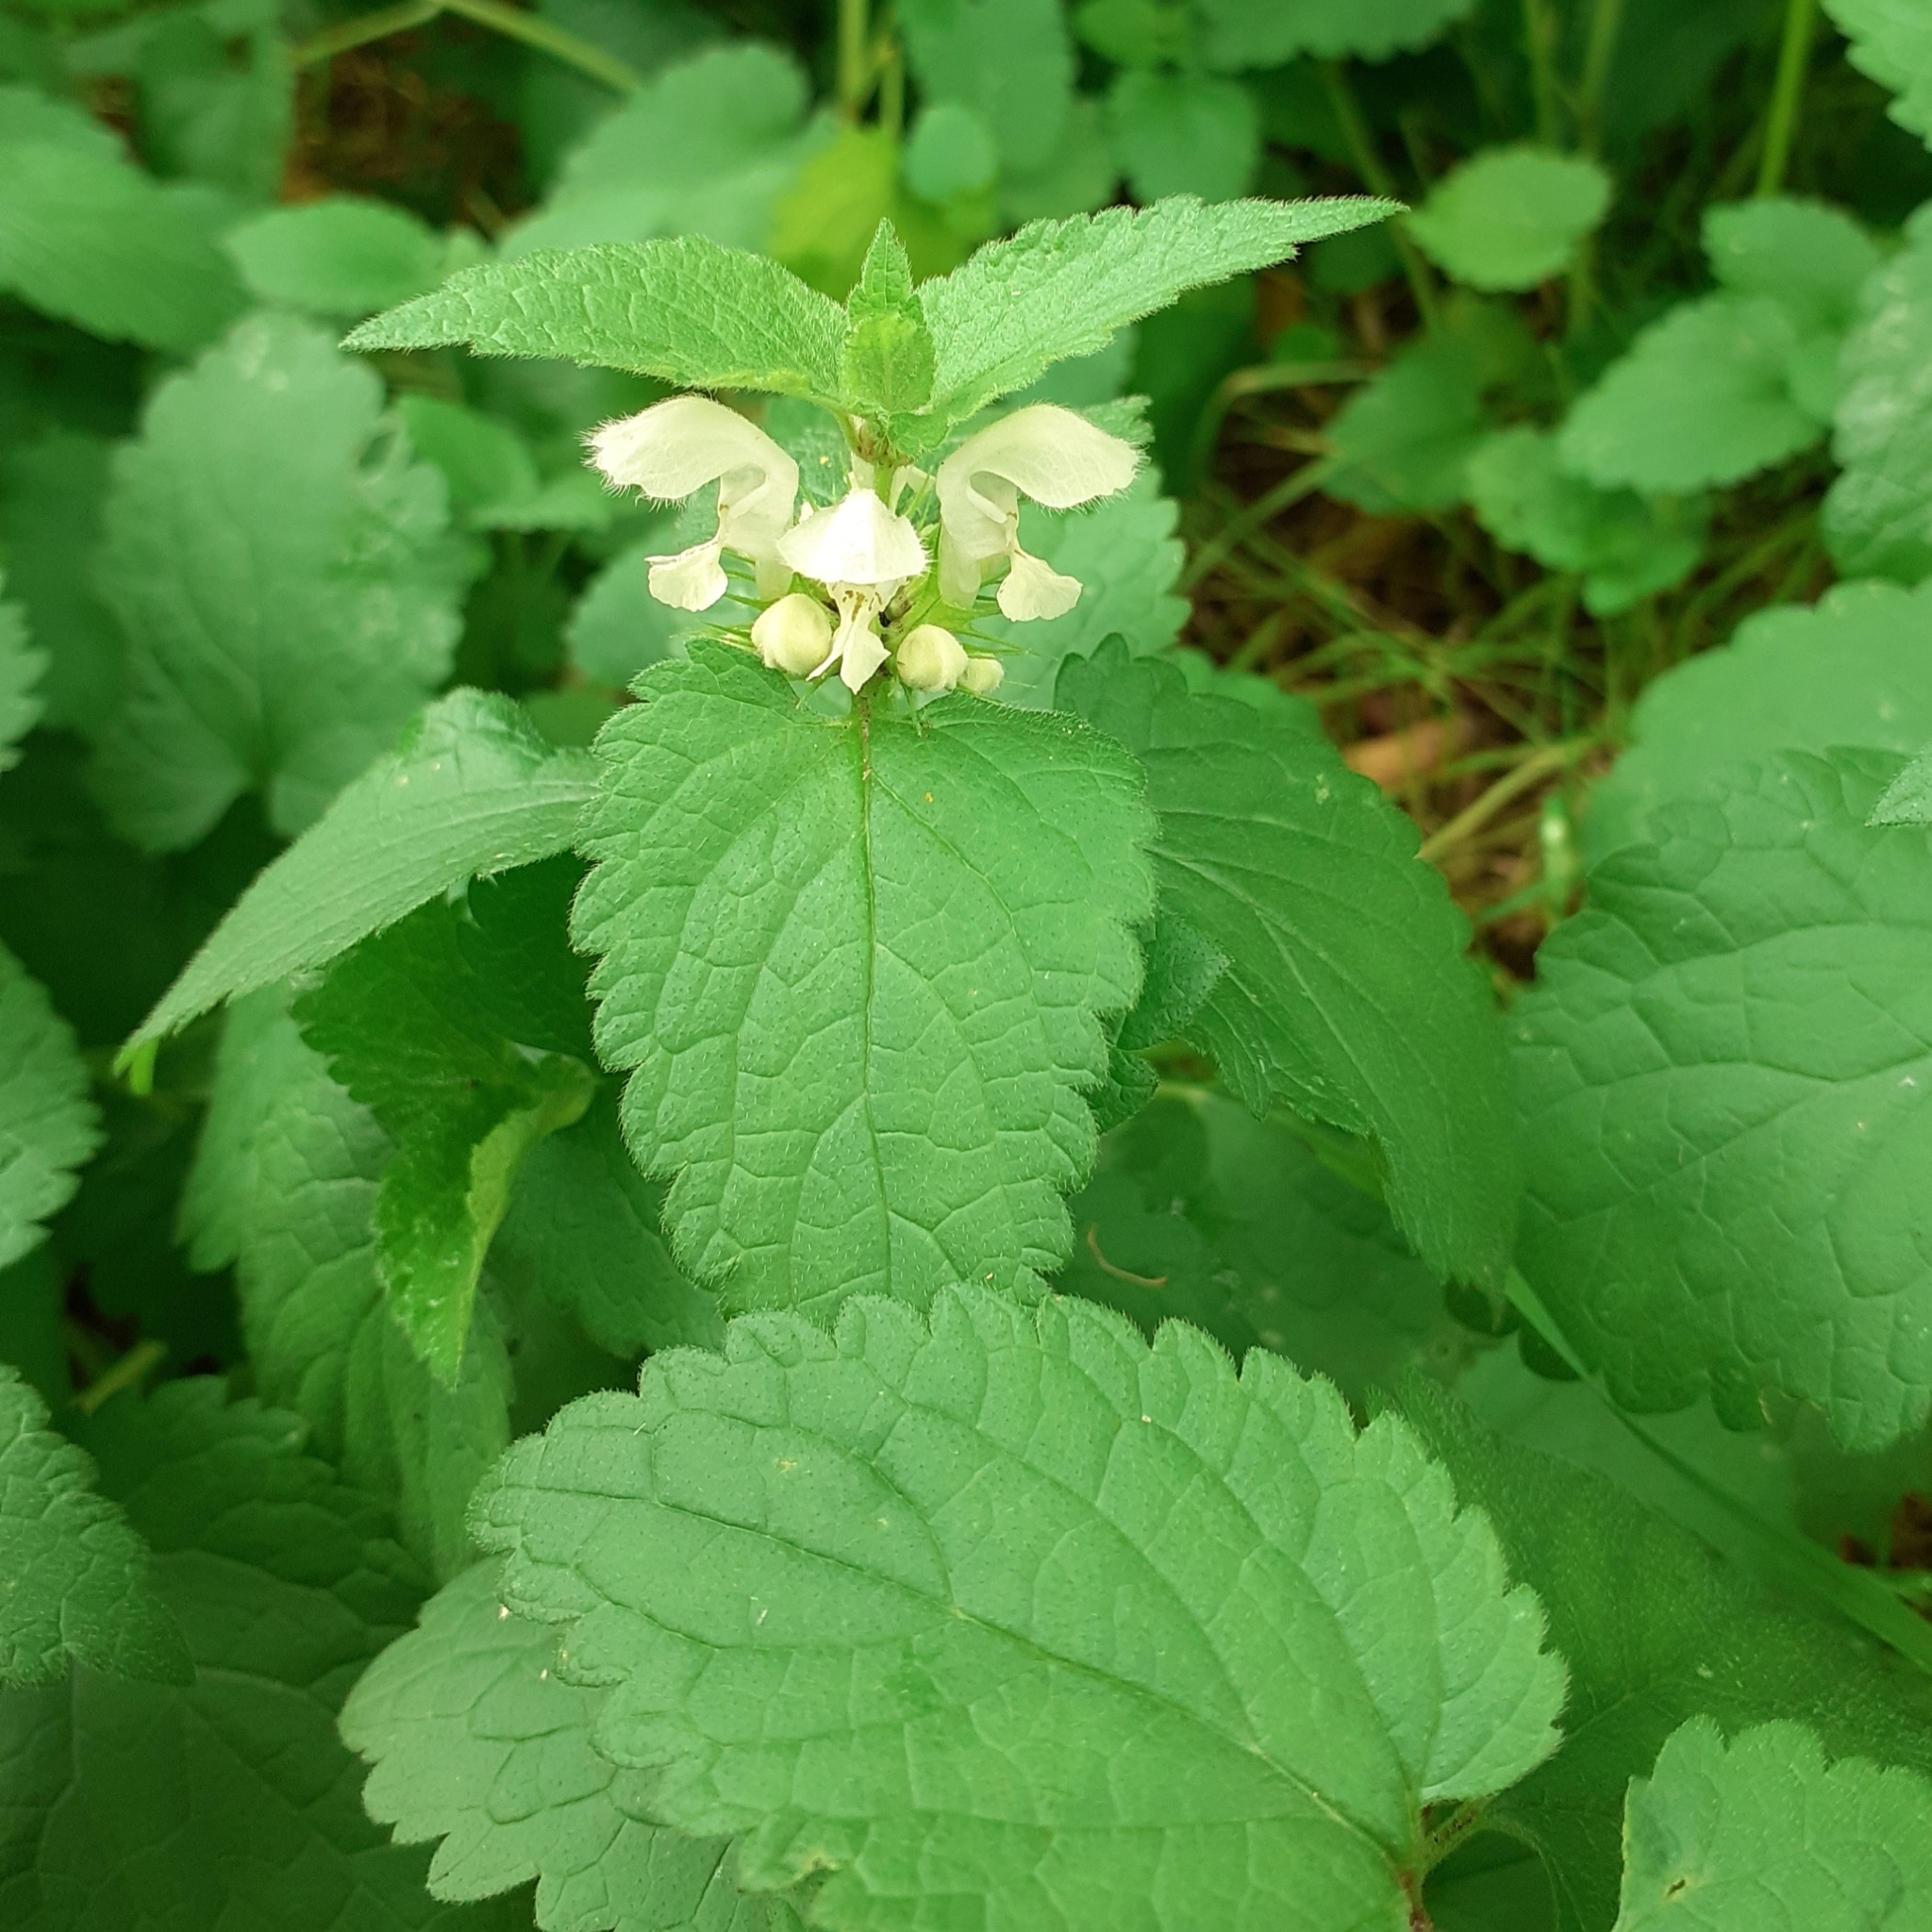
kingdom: Plantae
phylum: Tracheophyta
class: Magnoliopsida
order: Lamiales
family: Lamiaceae
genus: Lamium
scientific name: Lamium album
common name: White dead-nettle
